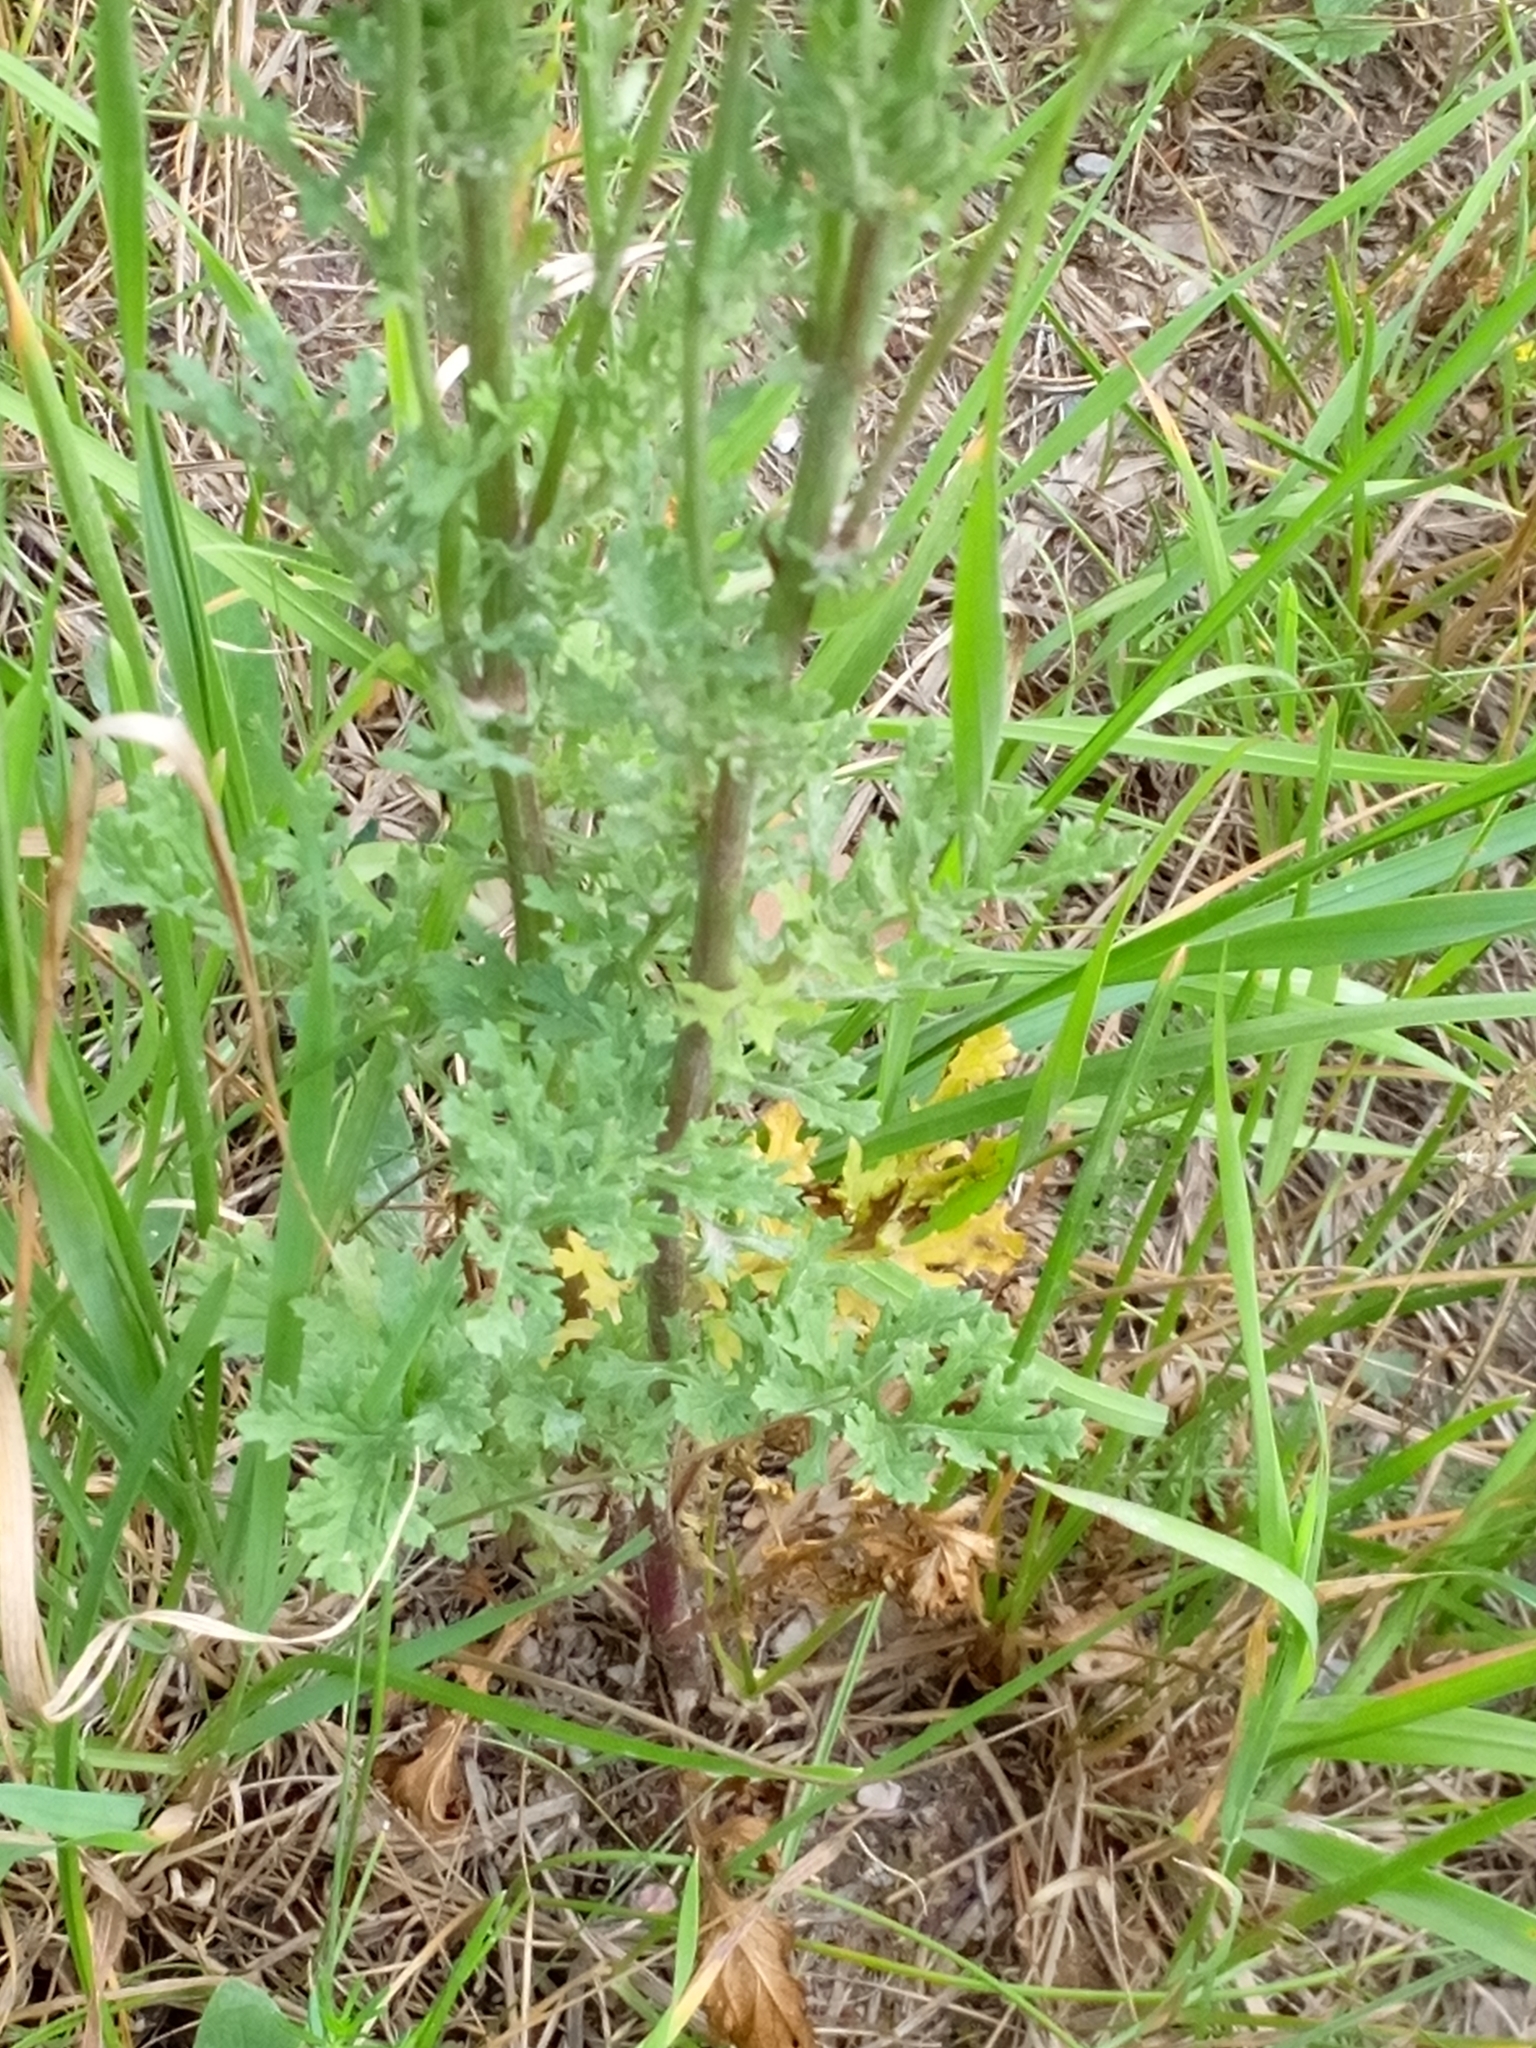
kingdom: Plantae
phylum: Tracheophyta
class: Magnoliopsida
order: Asterales
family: Asteraceae
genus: Jacobaea
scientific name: Jacobaea vulgaris
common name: Stinking willie
